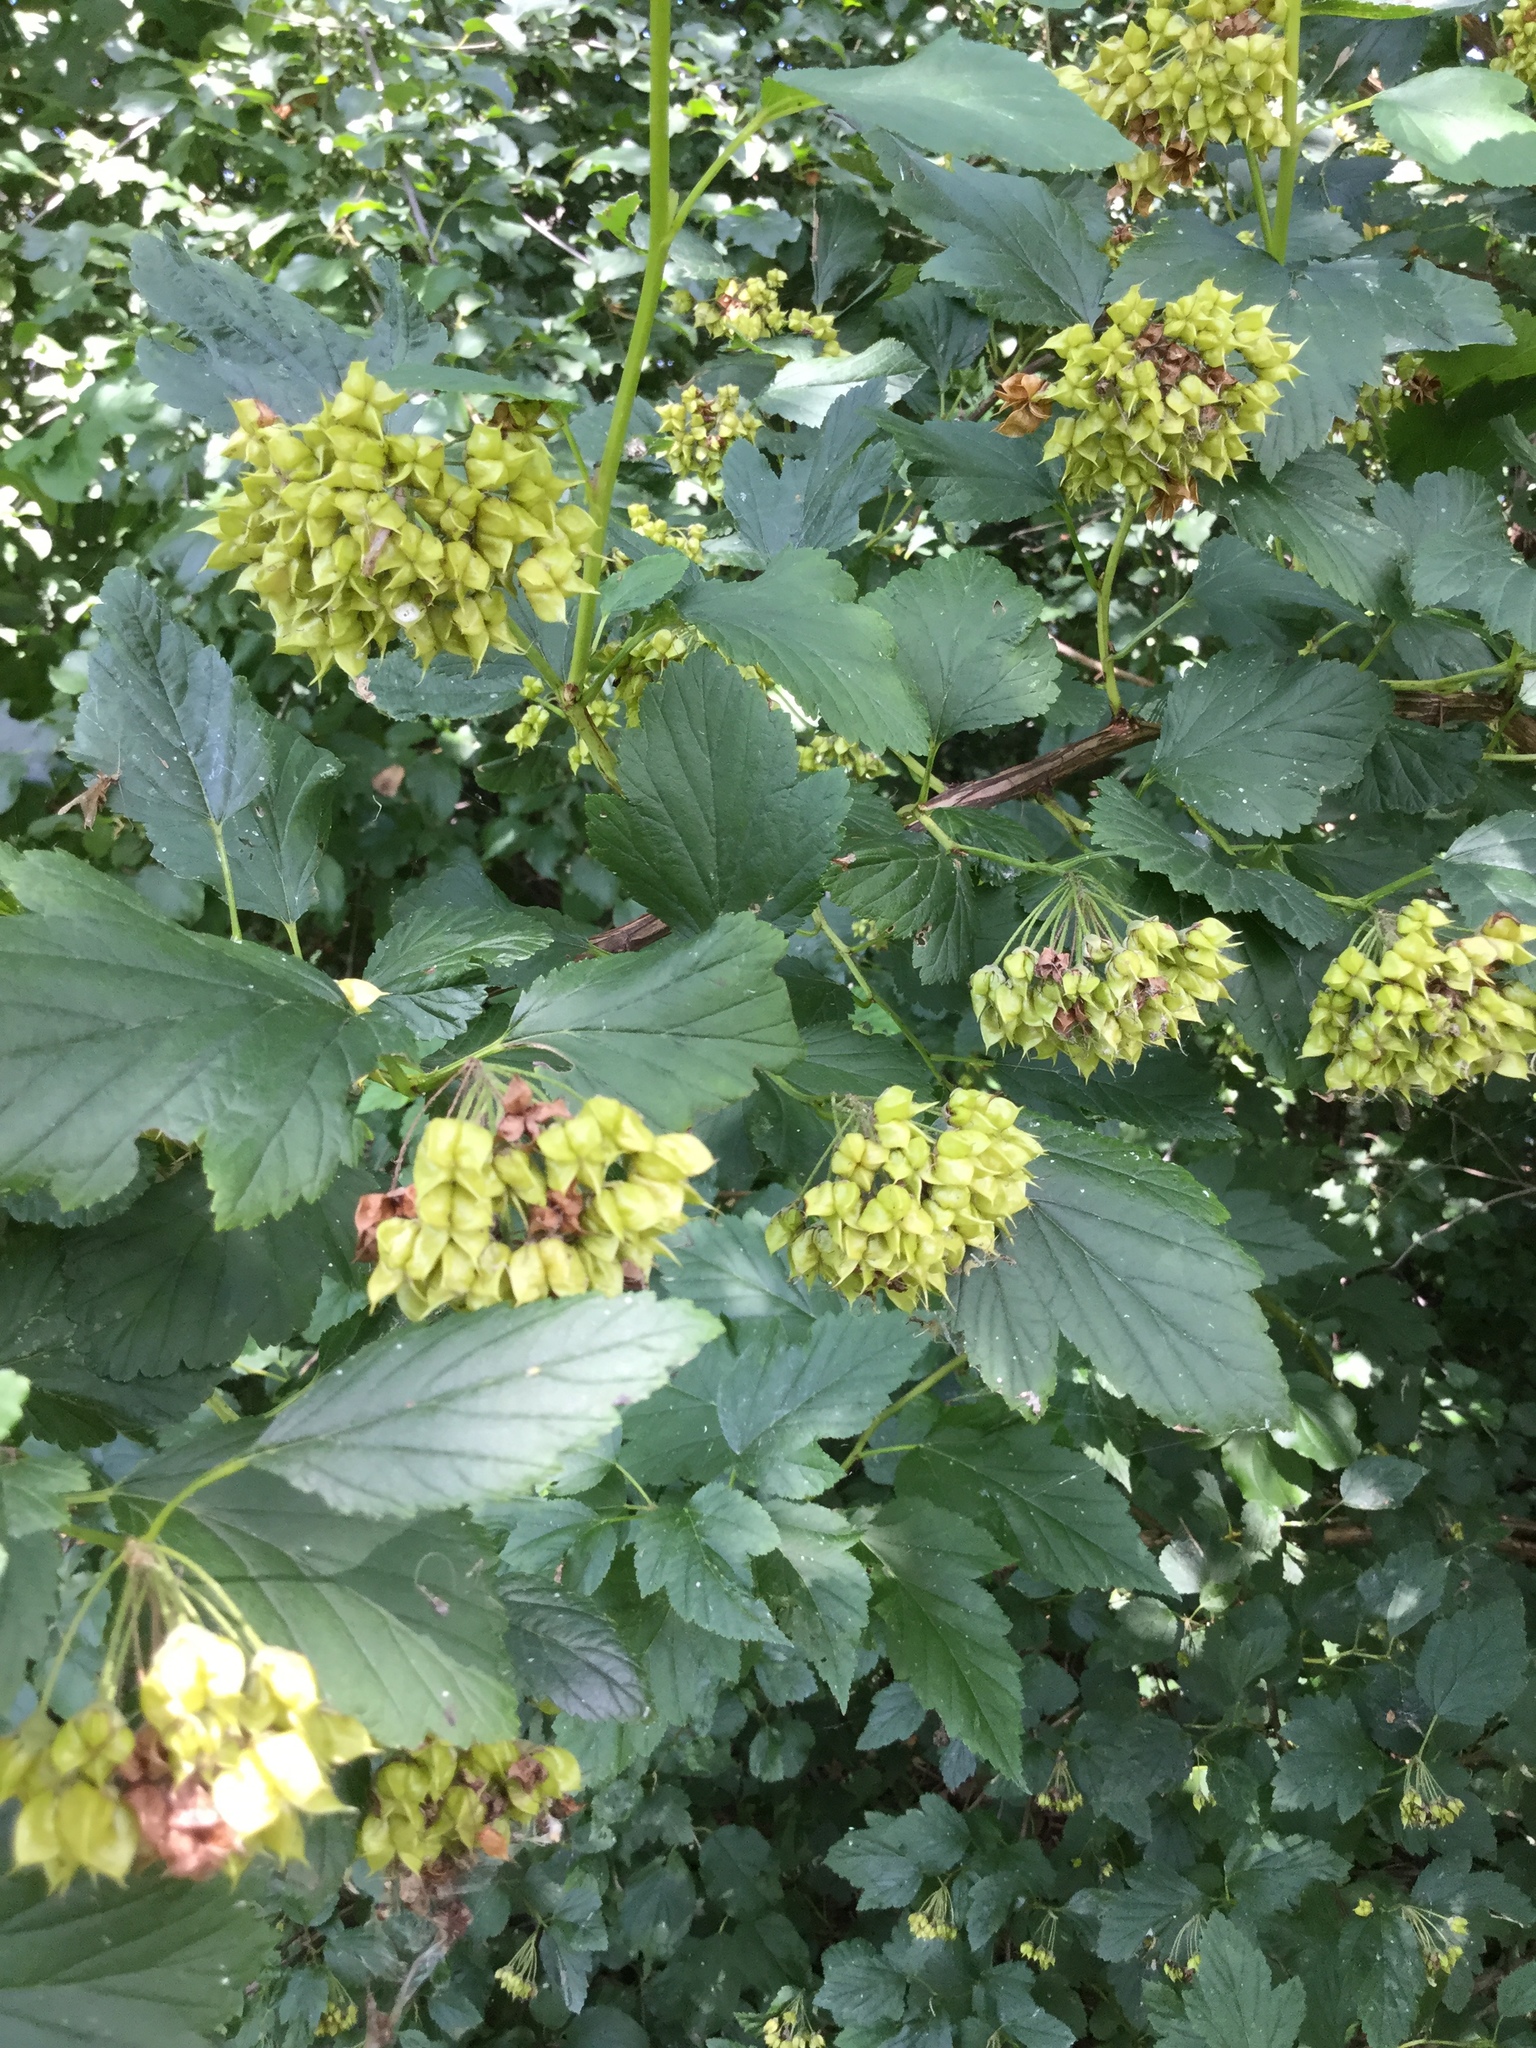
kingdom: Plantae
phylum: Tracheophyta
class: Magnoliopsida
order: Rosales
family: Rosaceae
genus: Physocarpus
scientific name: Physocarpus opulifolius
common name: Ninebark
